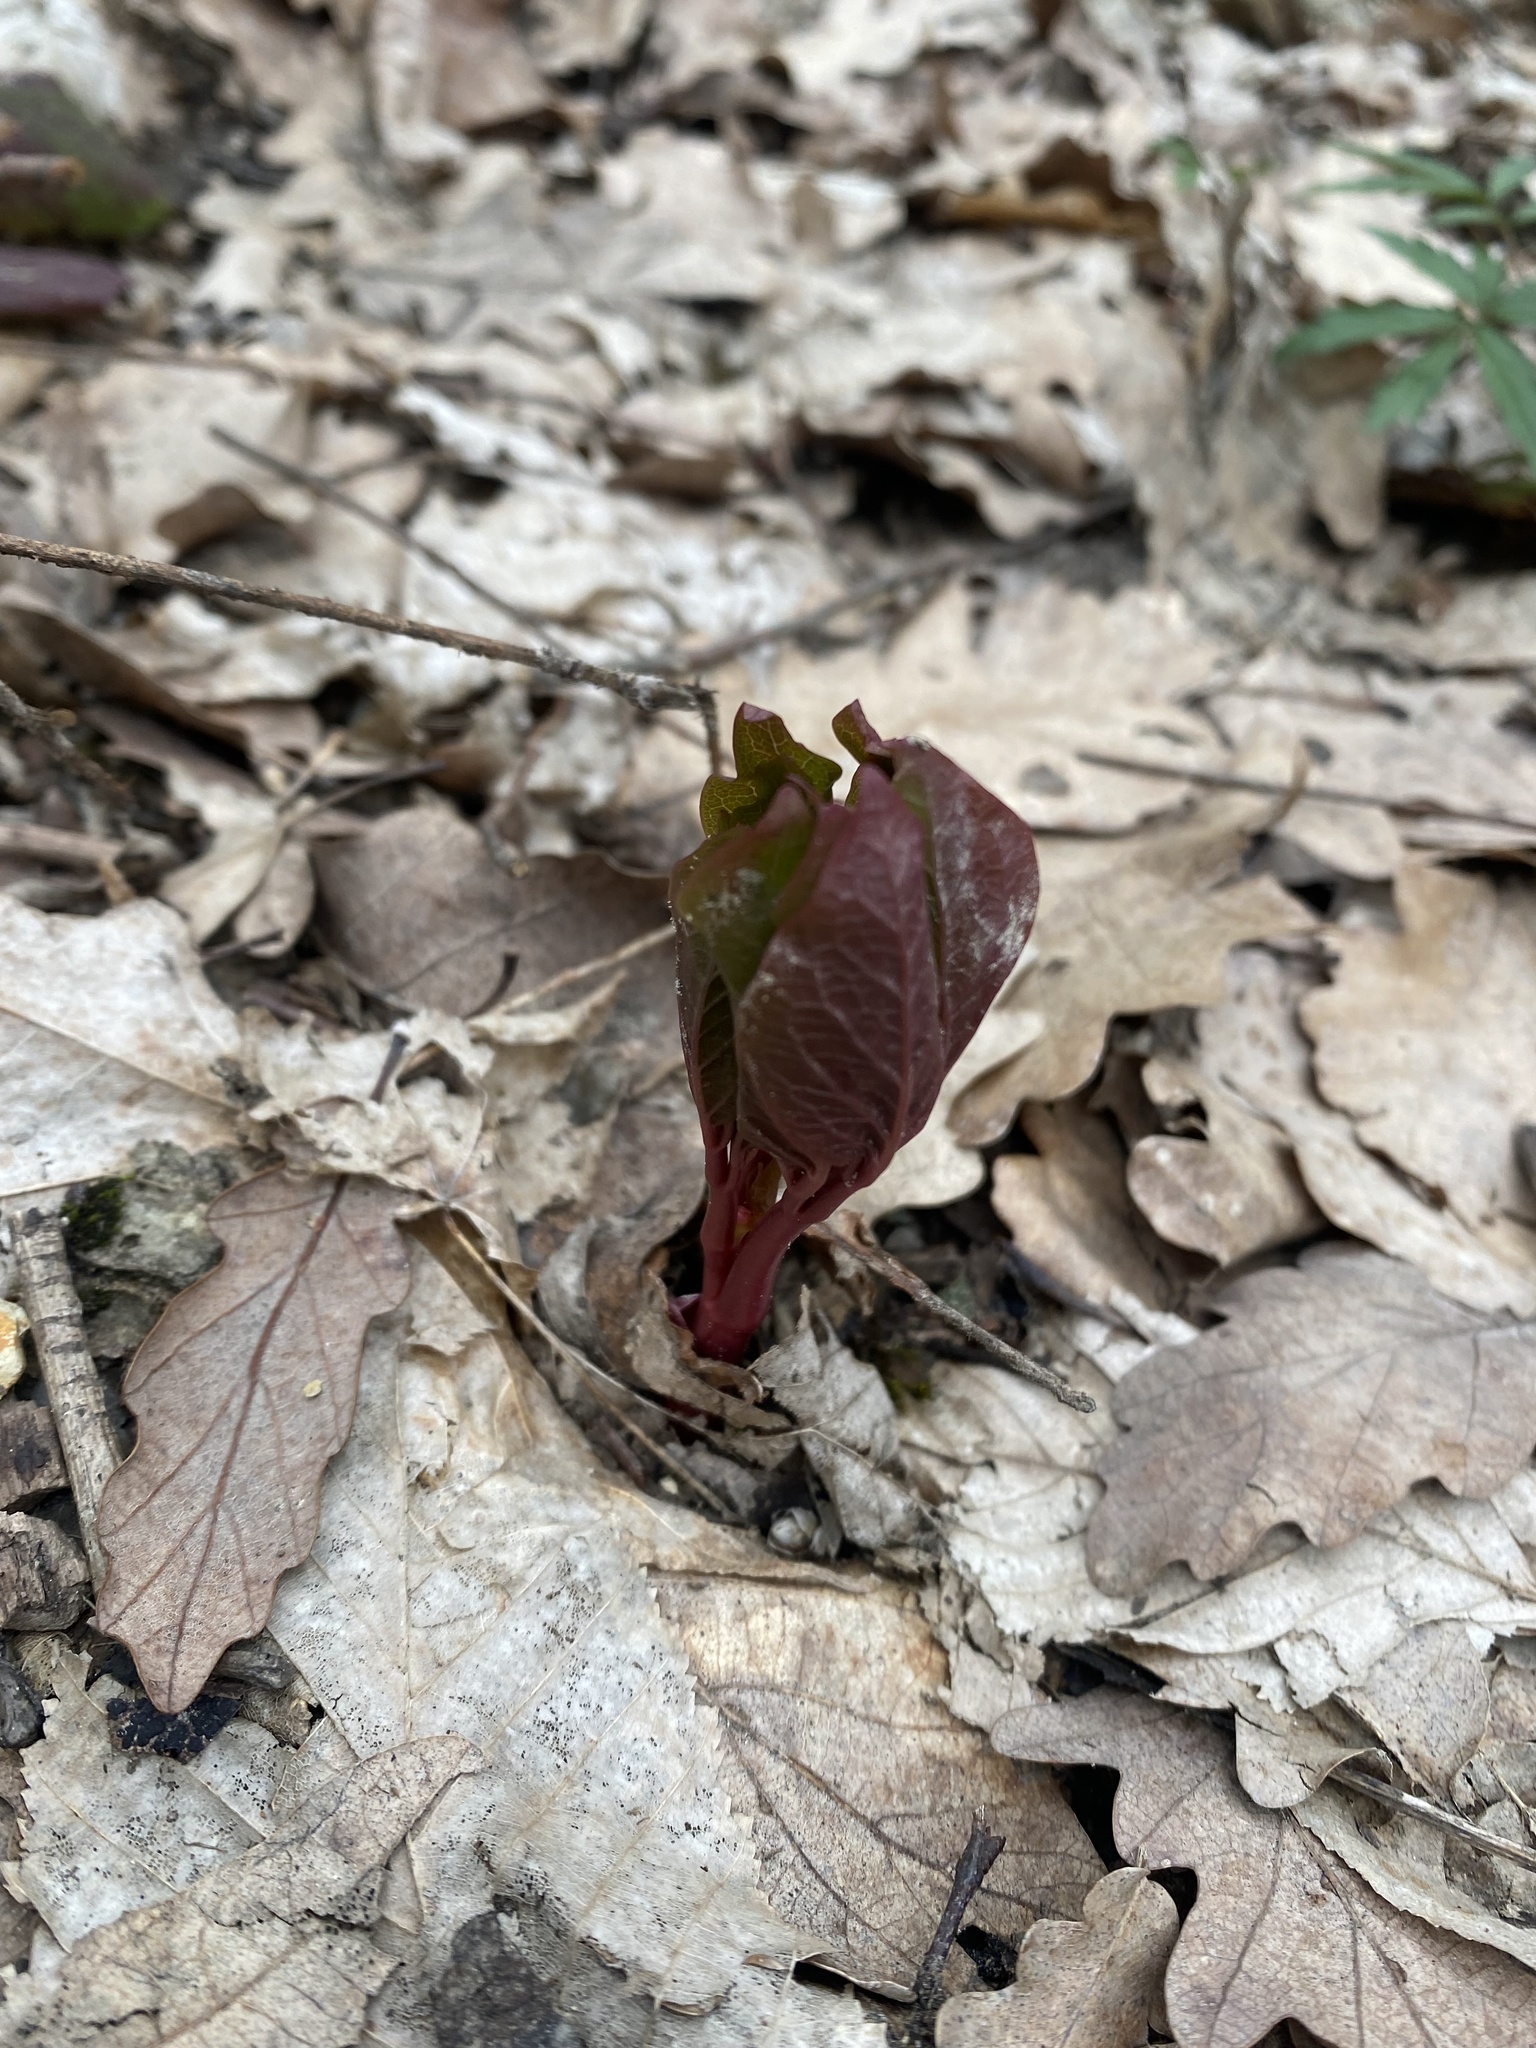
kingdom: Plantae
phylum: Tracheophyta
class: Magnoliopsida
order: Saxifragales
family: Paeoniaceae
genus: Paeonia
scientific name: Paeonia caucasica
